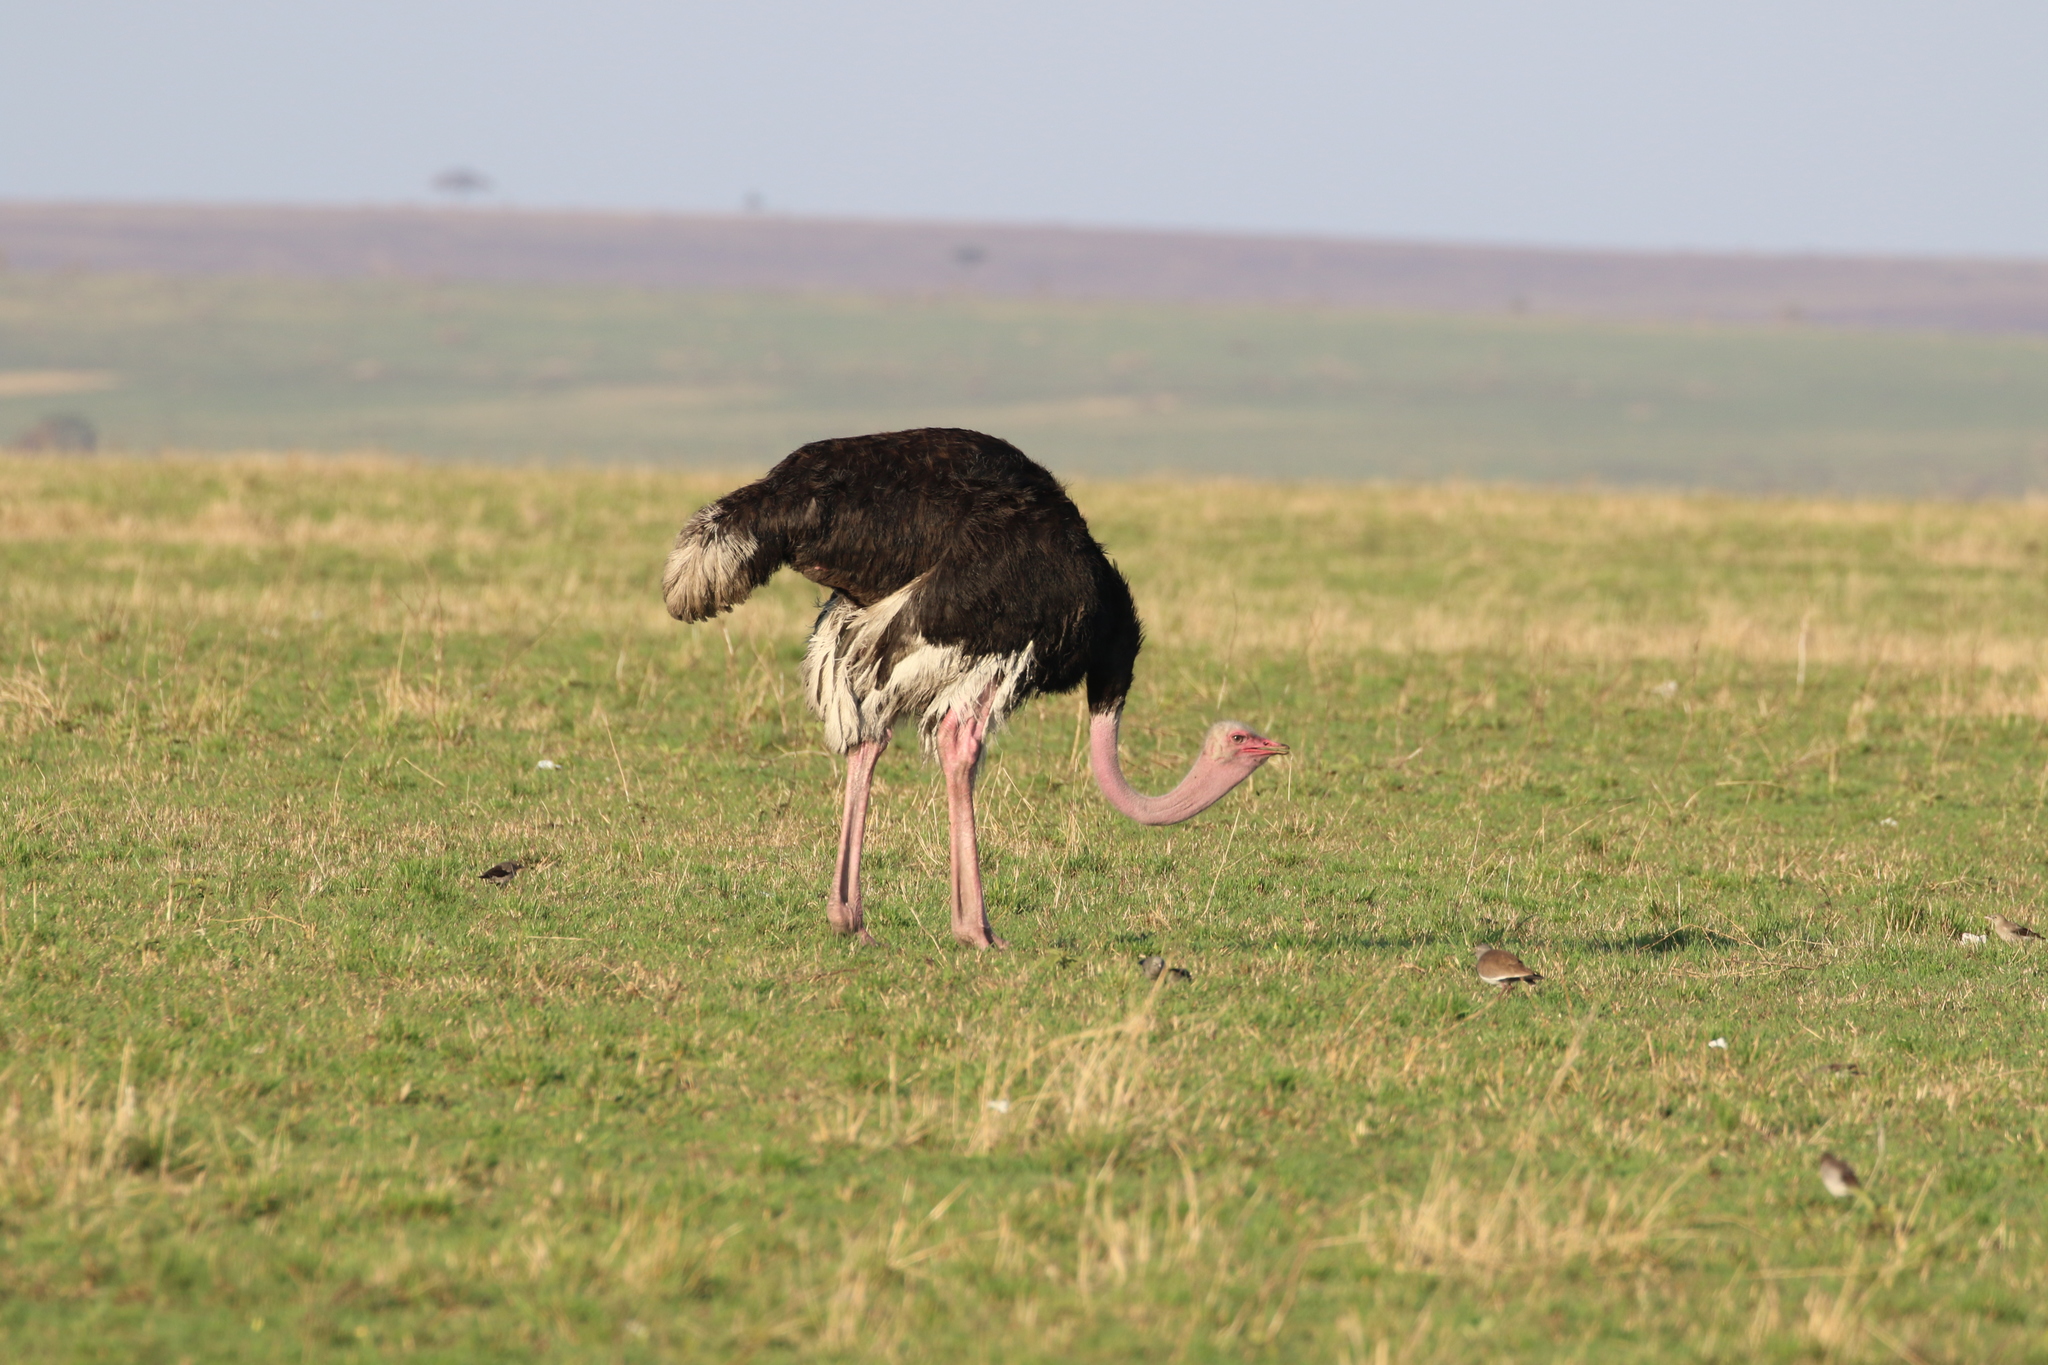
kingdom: Animalia
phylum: Chordata
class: Aves
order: Struthioniformes
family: Struthionidae
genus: Struthio
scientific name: Struthio camelus
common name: Common ostrich
